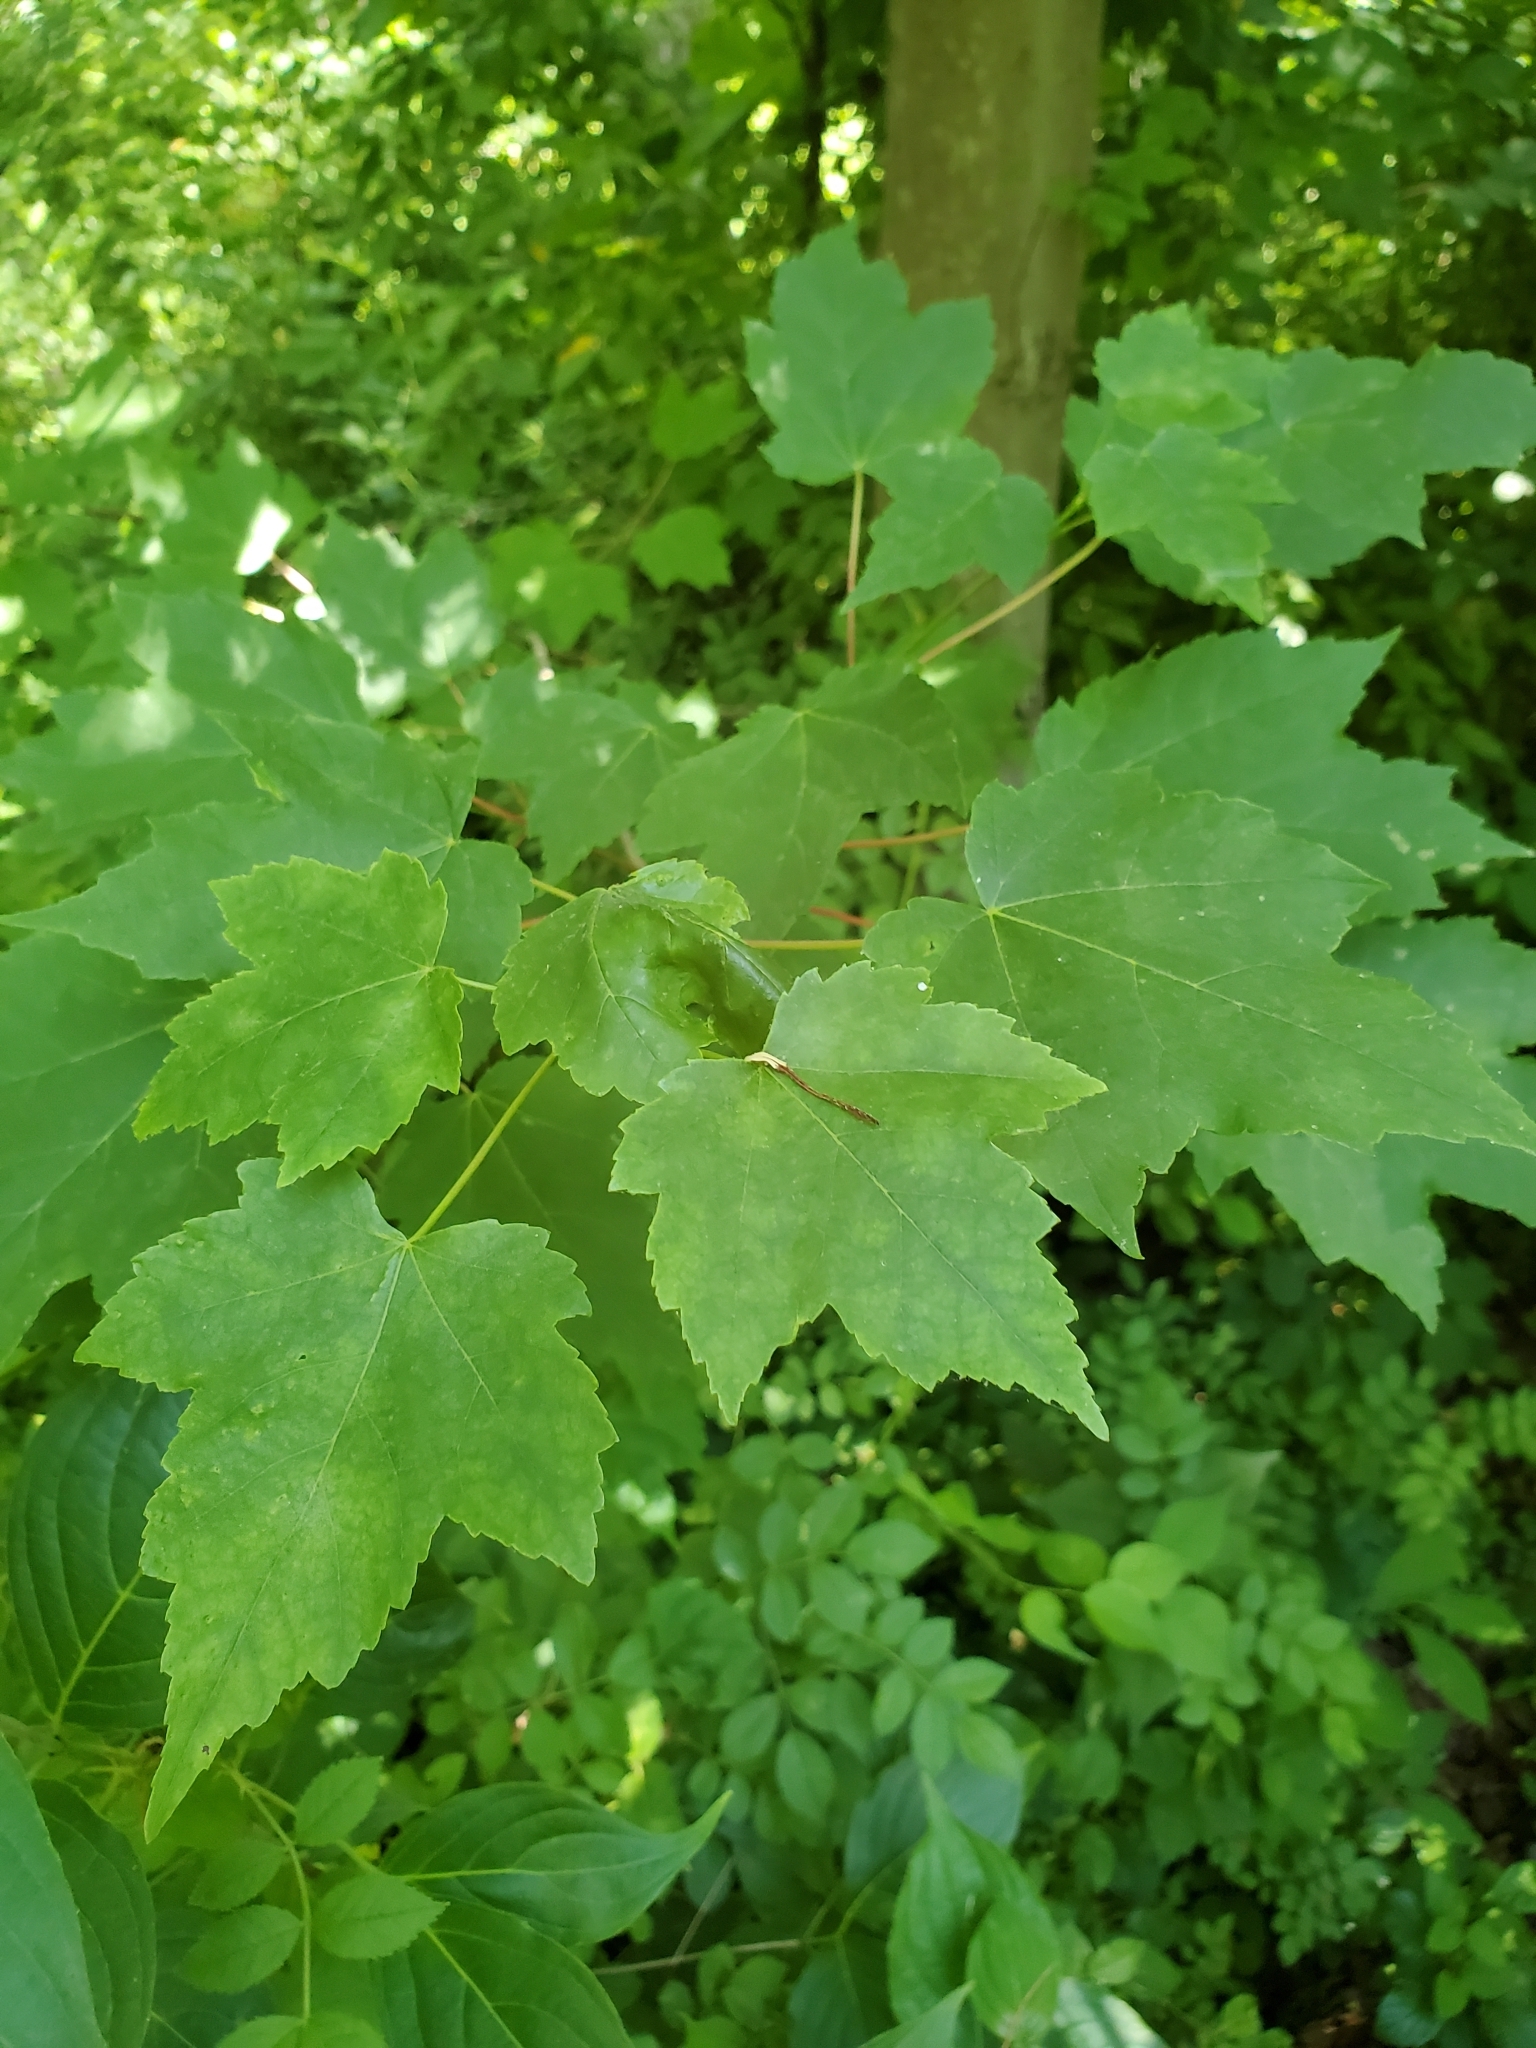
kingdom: Plantae
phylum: Tracheophyta
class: Magnoliopsida
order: Sapindales
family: Sapindaceae
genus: Acer
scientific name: Acer rubrum
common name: Red maple
